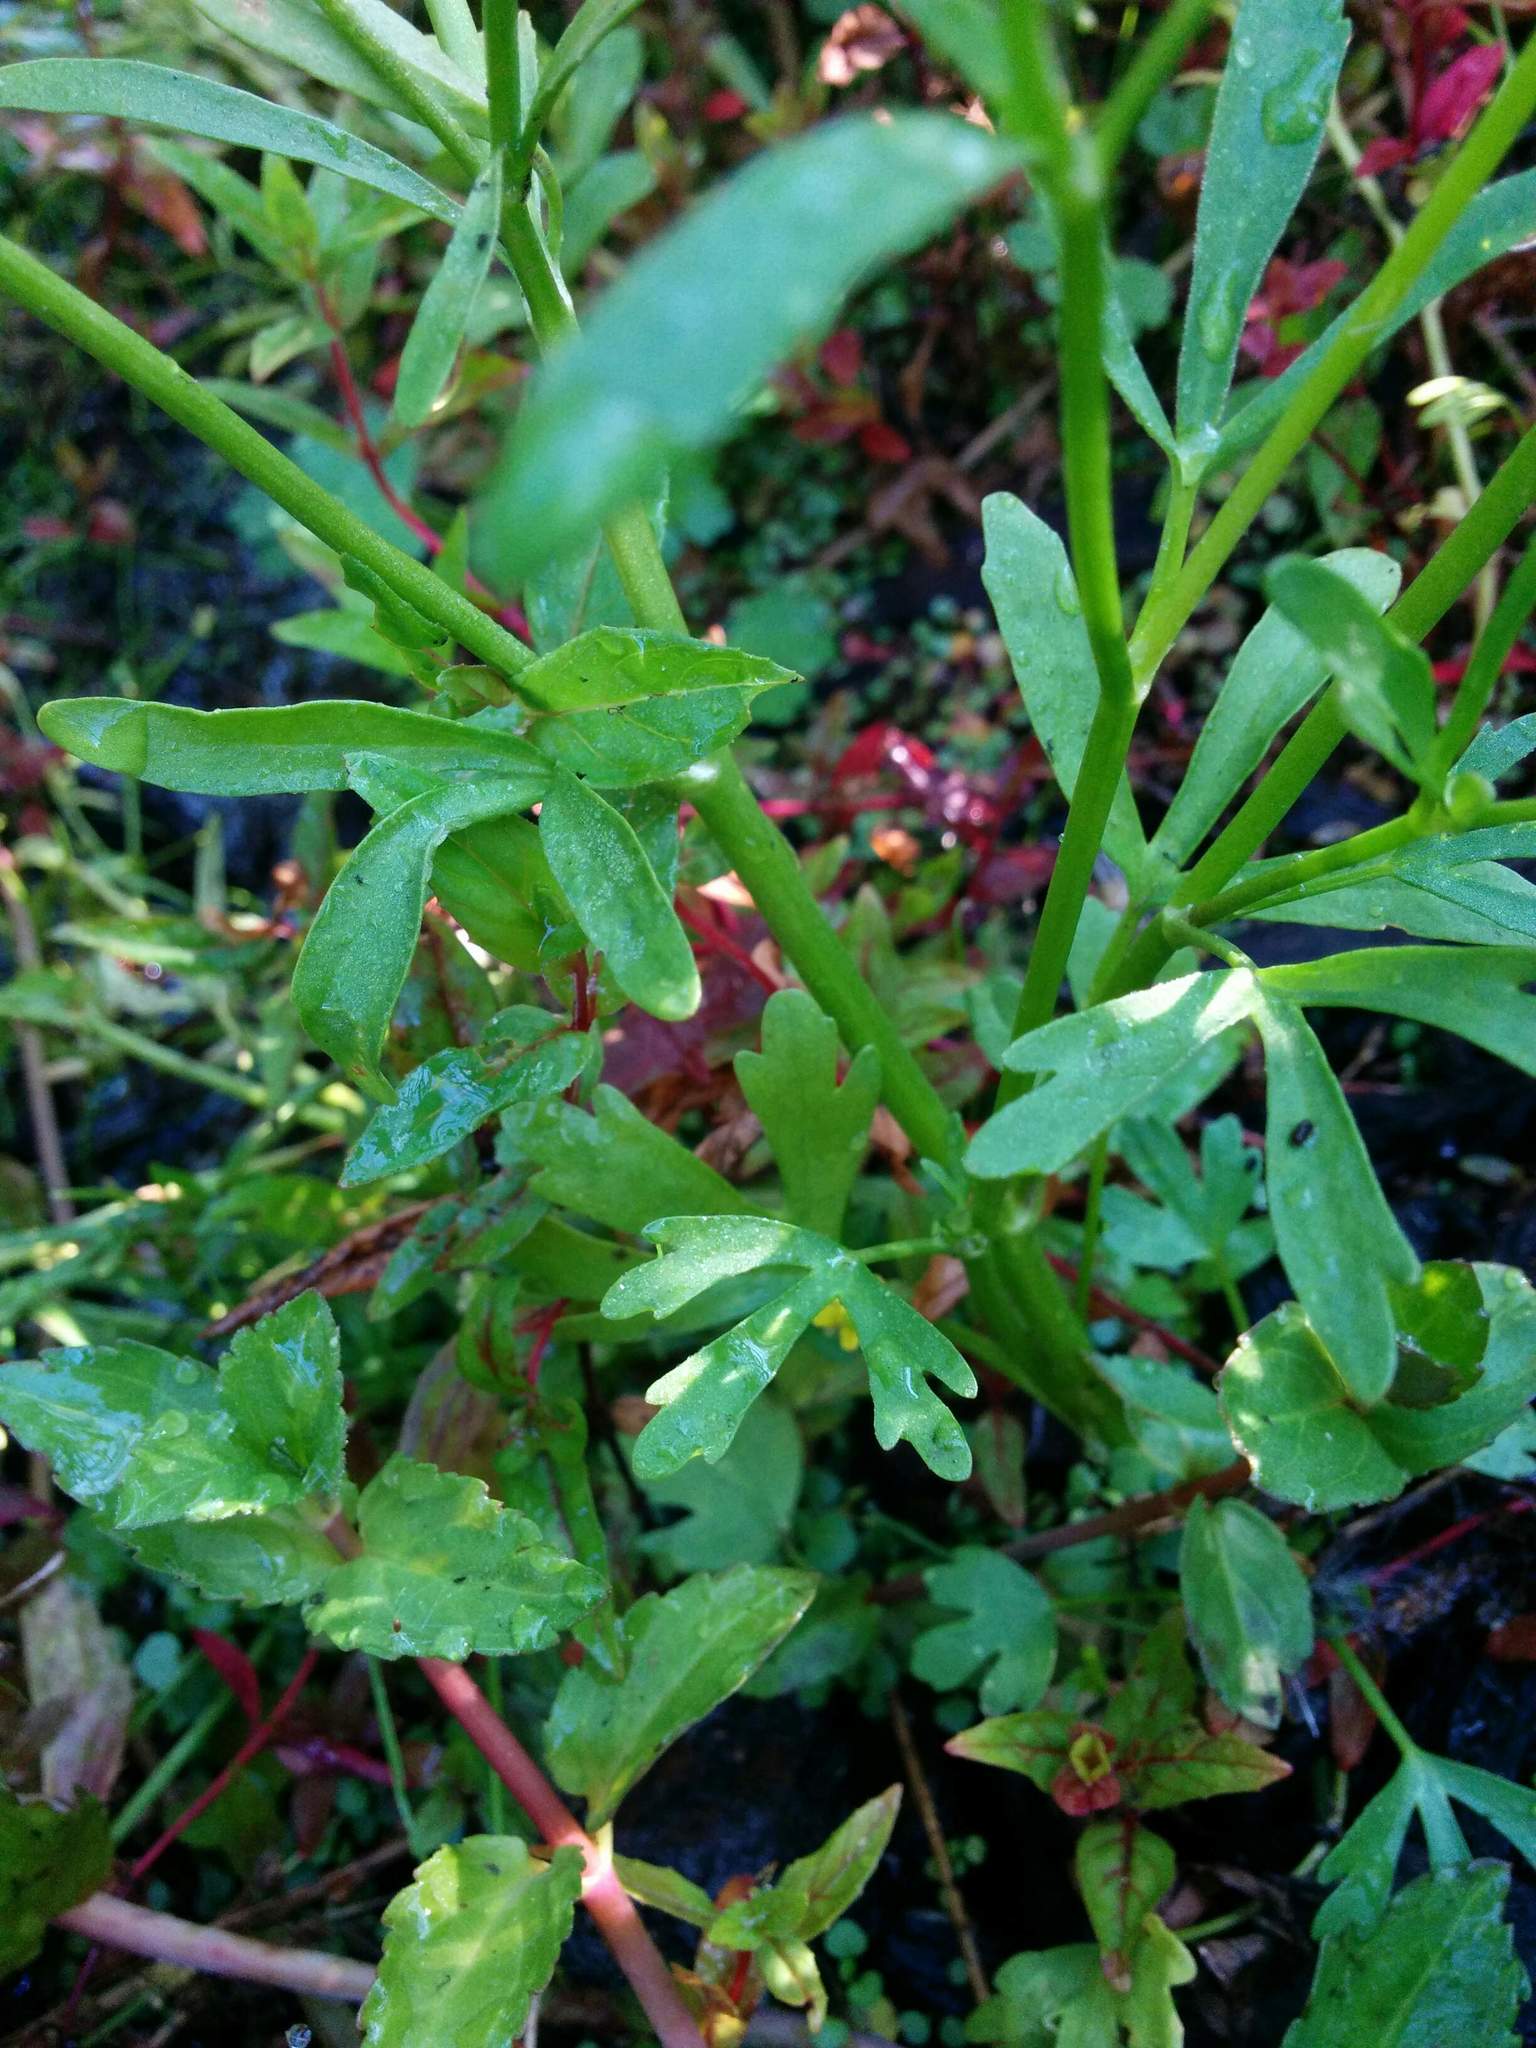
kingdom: Plantae
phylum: Tracheophyta
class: Magnoliopsida
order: Ranunculales
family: Ranunculaceae
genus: Ranunculus
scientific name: Ranunculus sceleratus
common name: Celery-leaved buttercup
